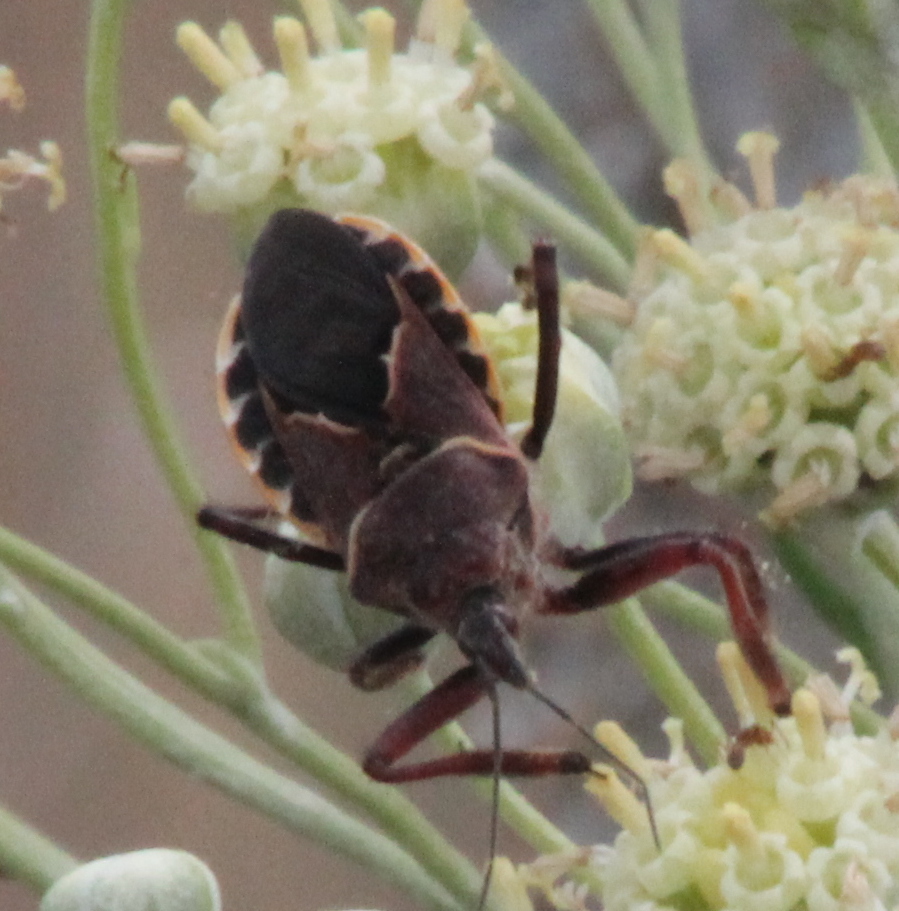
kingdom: Animalia
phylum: Arthropoda
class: Insecta
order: Hemiptera
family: Reduviidae
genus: Apiomerus
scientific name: Apiomerus spissipes
